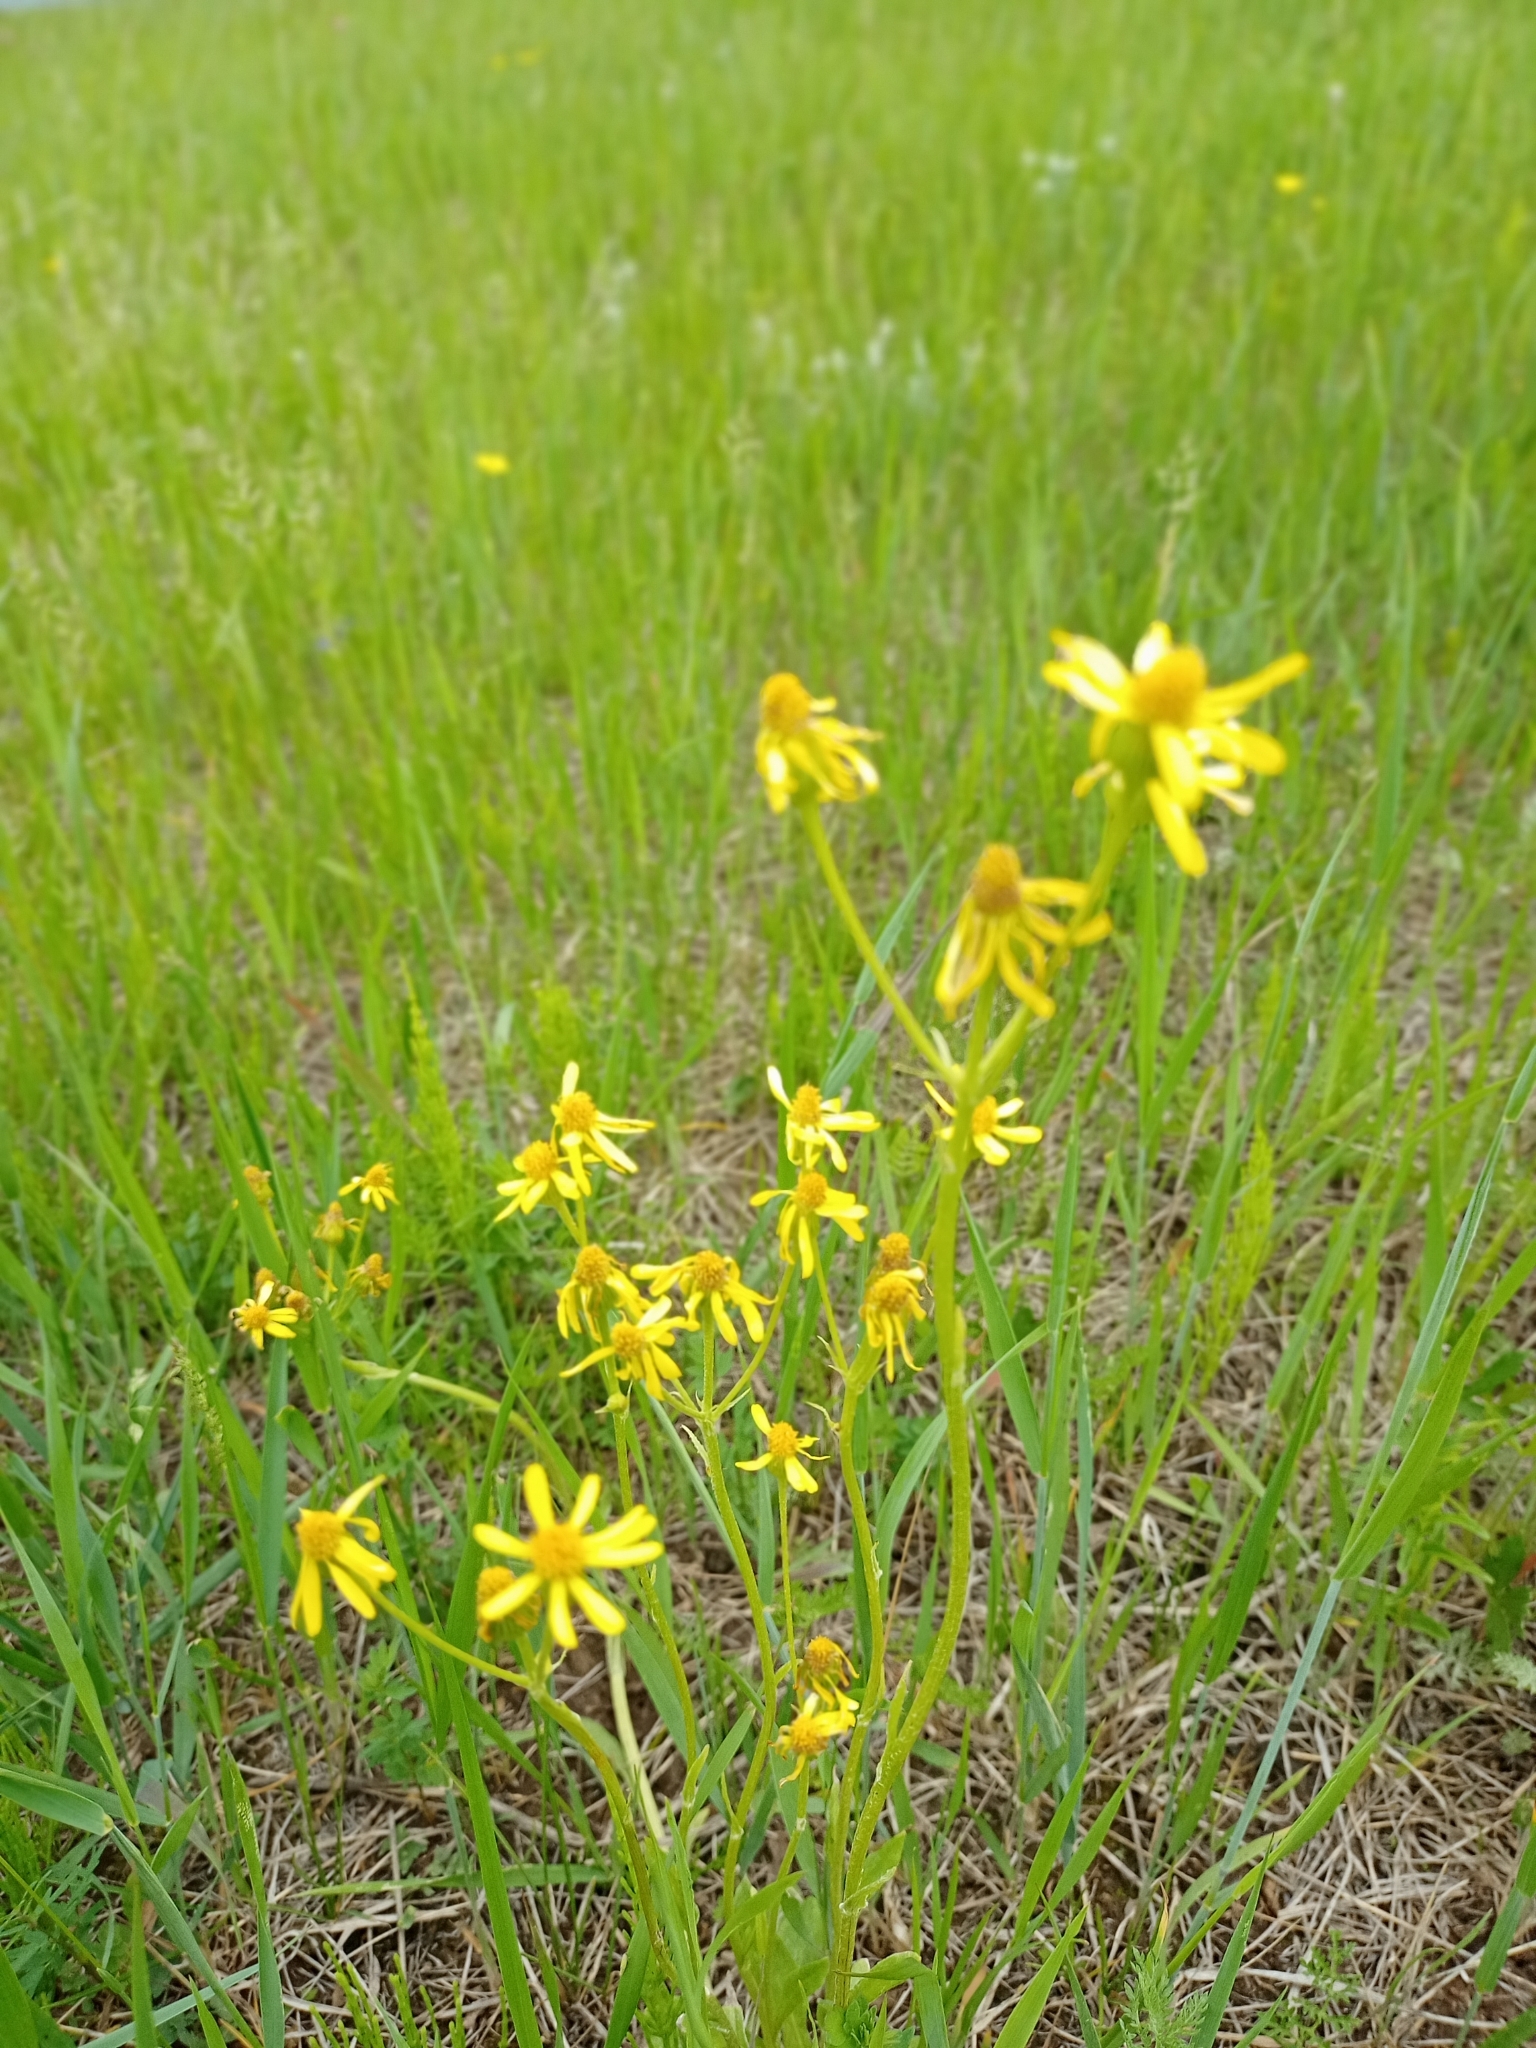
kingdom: Plantae
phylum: Tracheophyta
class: Magnoliopsida
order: Asterales
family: Asteraceae
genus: Tephroseris
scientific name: Tephroseris integrifolia
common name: Field fleawort
